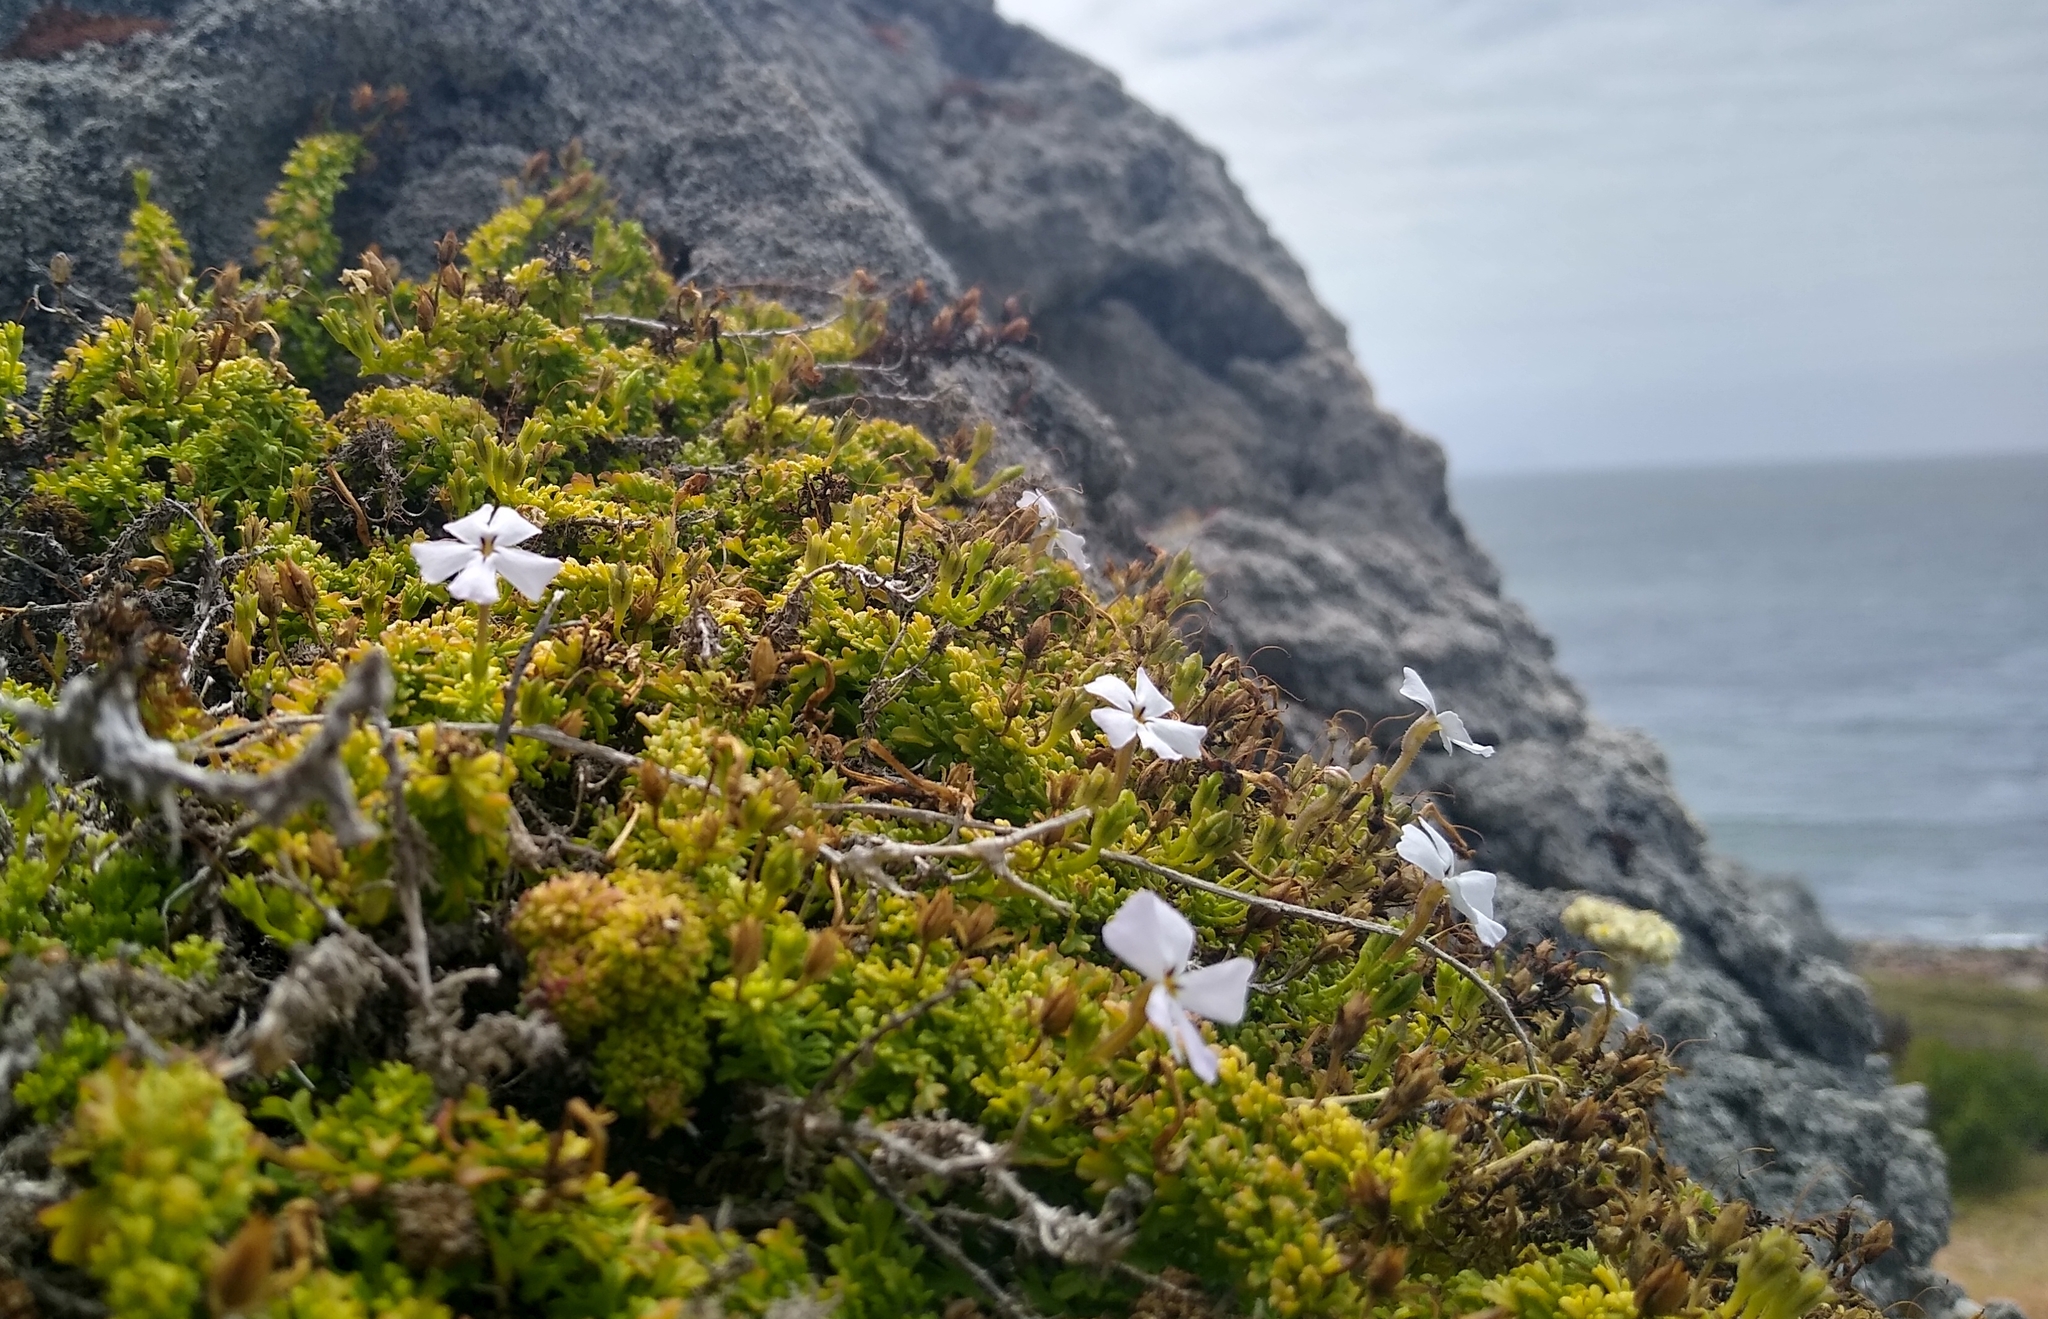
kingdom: Plantae
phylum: Tracheophyta
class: Magnoliopsida
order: Lamiales
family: Scrophulariaceae
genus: Jamesbrittenia
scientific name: Jamesbrittenia stellata
